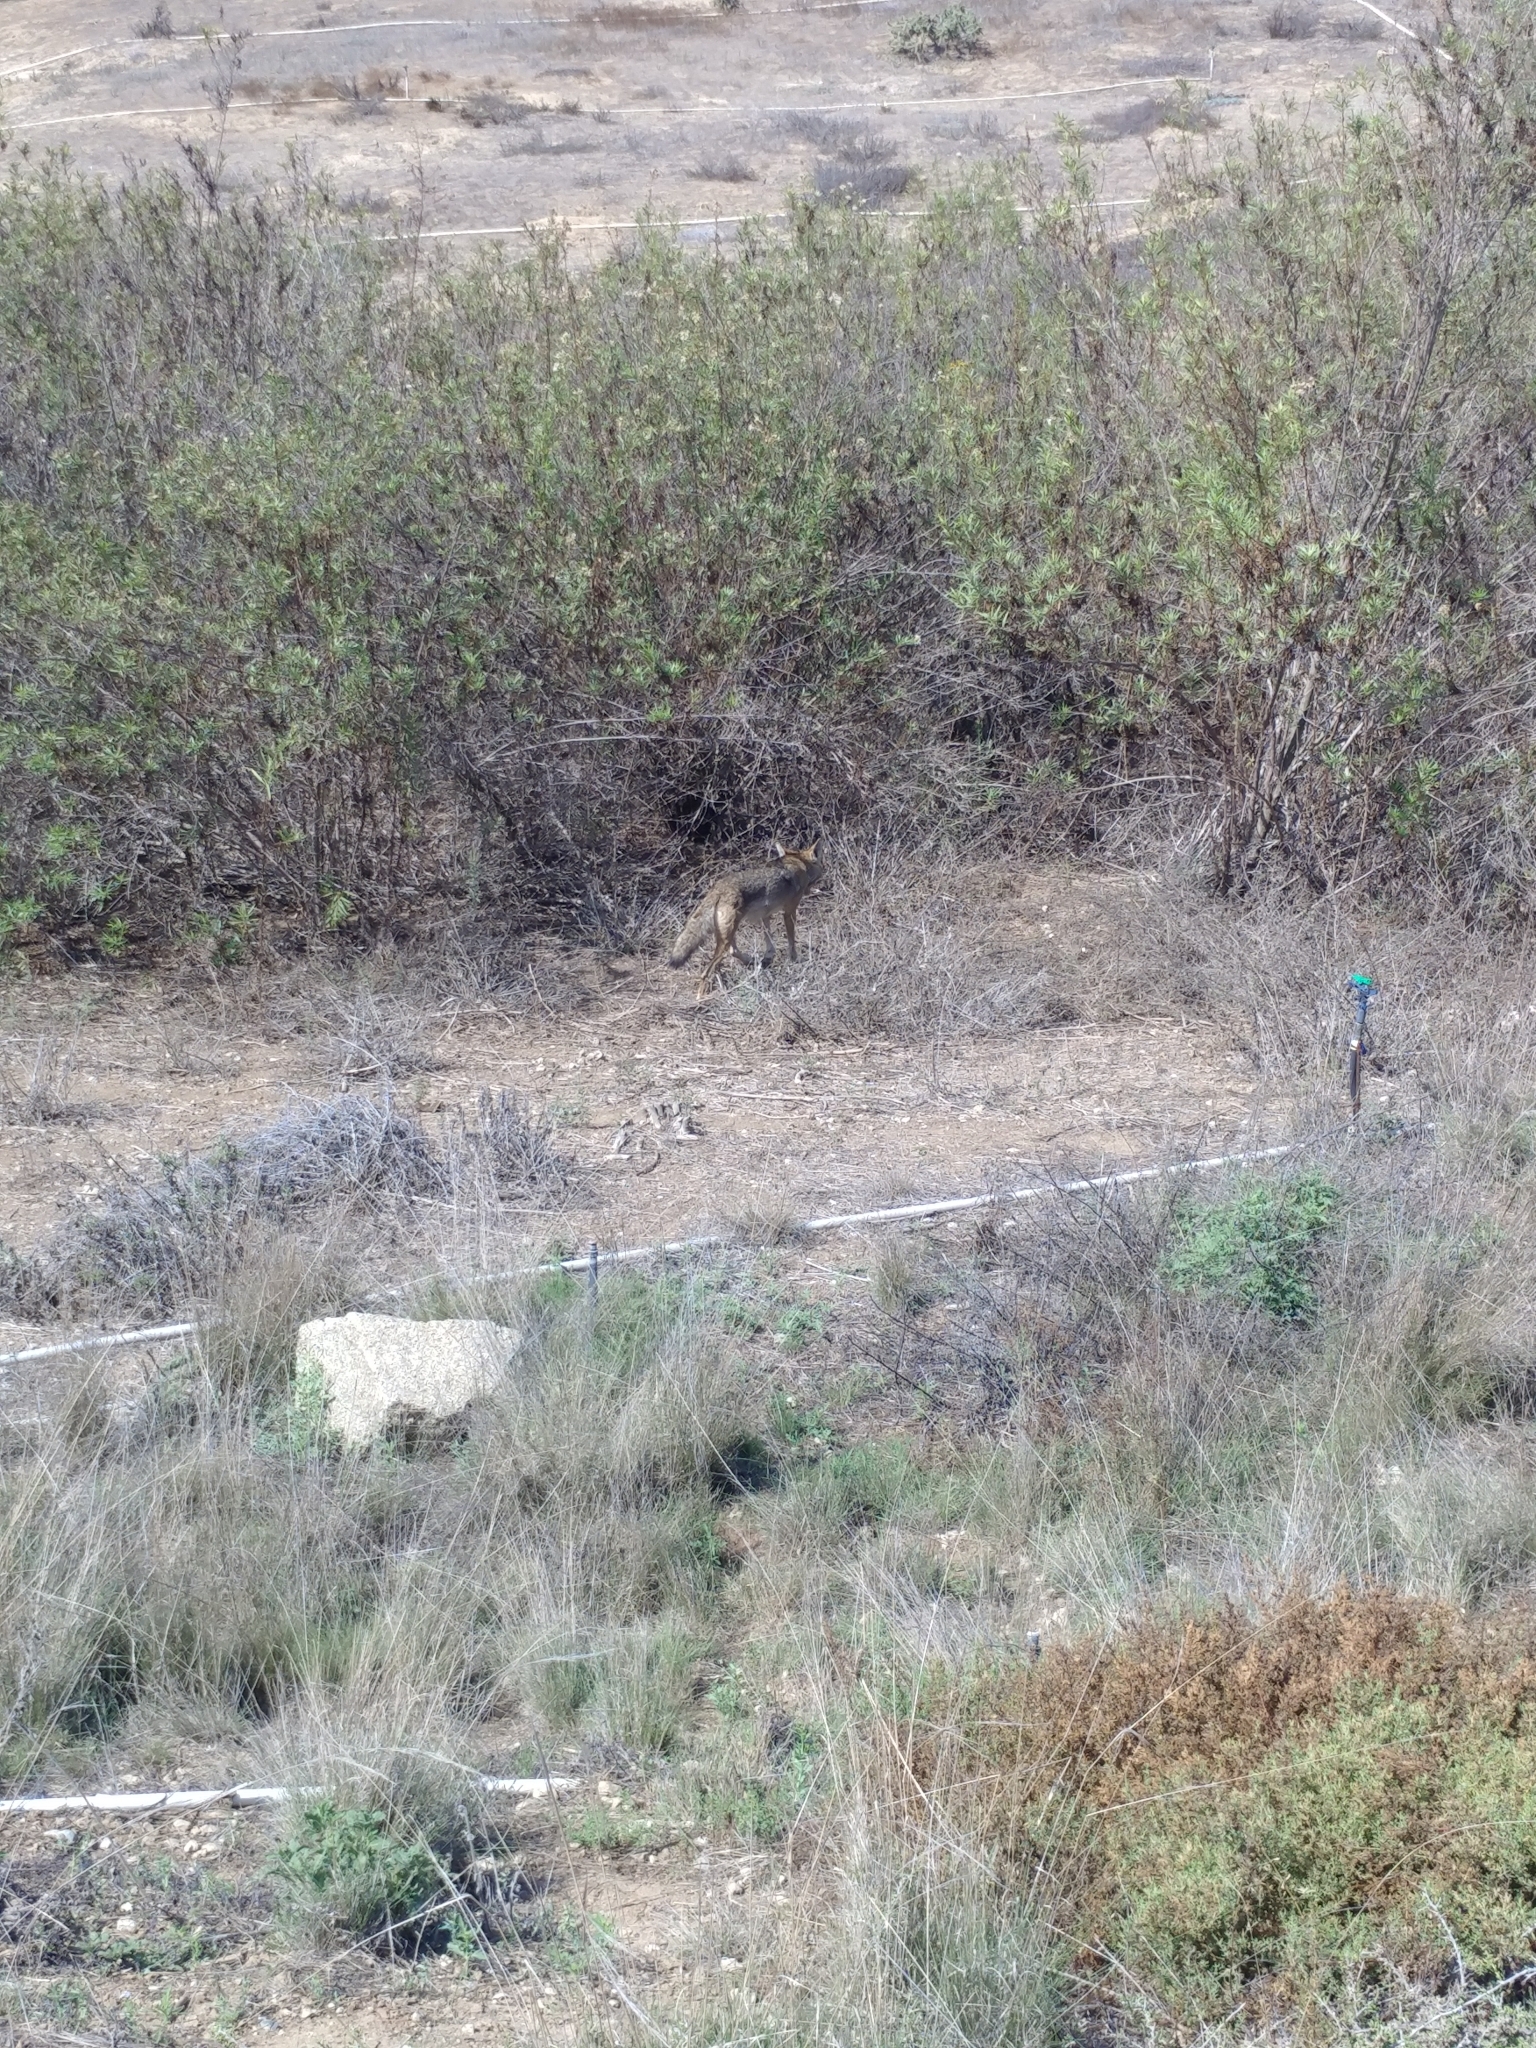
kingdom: Animalia
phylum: Chordata
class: Mammalia
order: Carnivora
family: Canidae
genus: Canis
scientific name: Canis latrans
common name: Coyote
